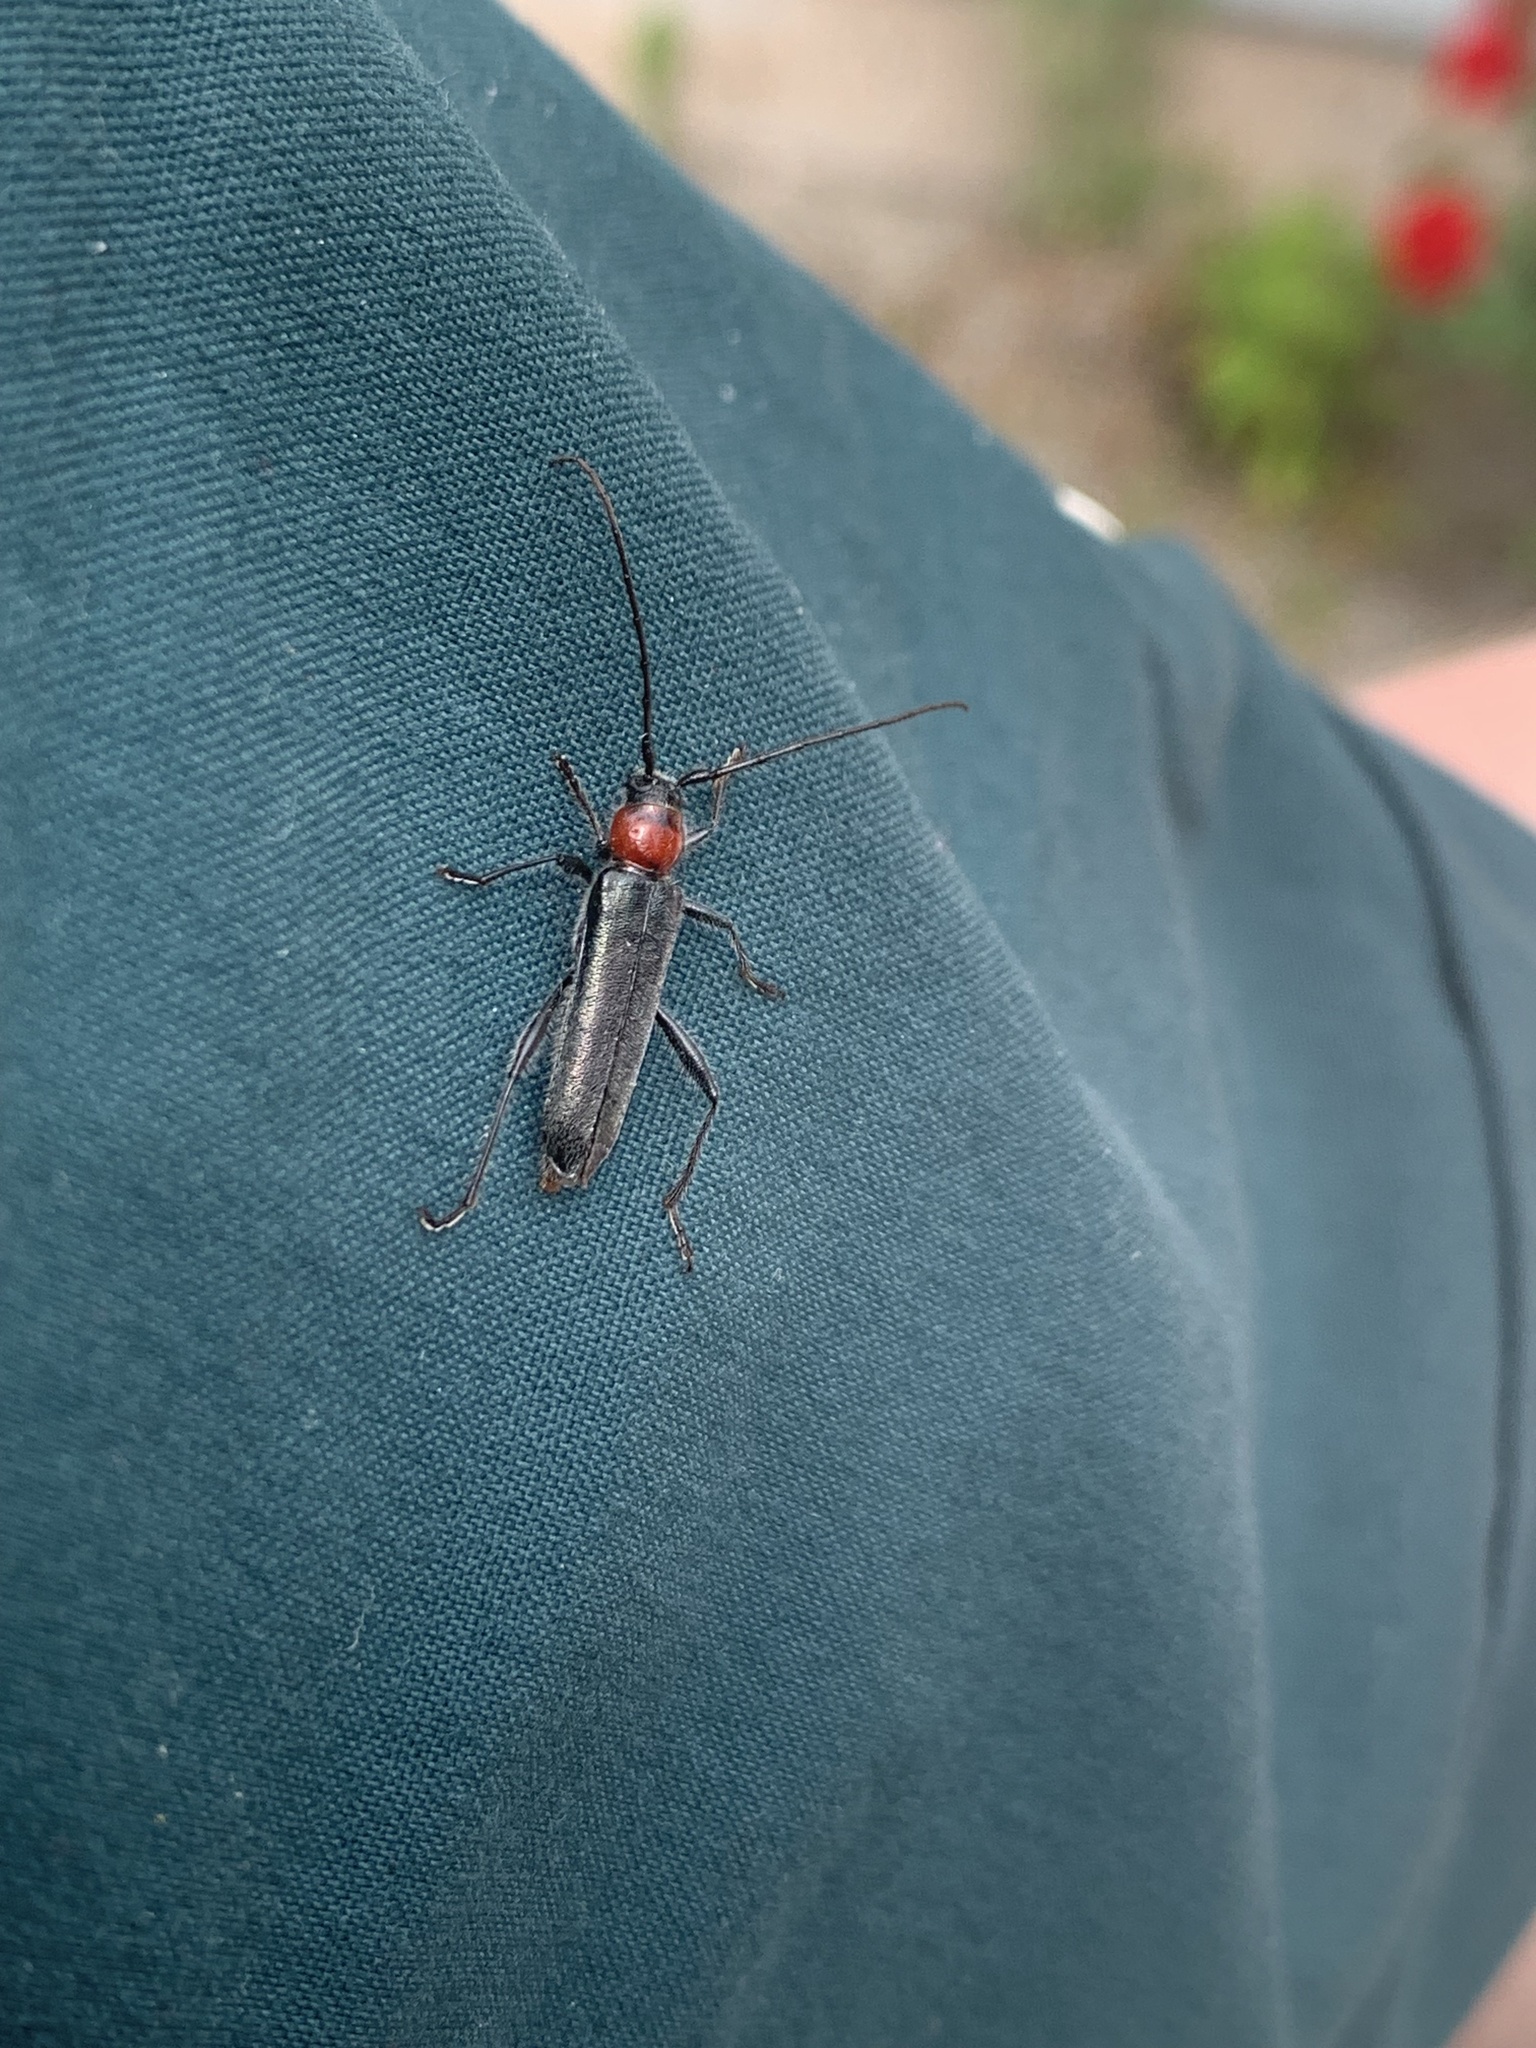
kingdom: Animalia
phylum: Arthropoda
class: Insecta
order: Coleoptera
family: Cerambycidae
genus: Pronocera
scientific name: Pronocera collaris
